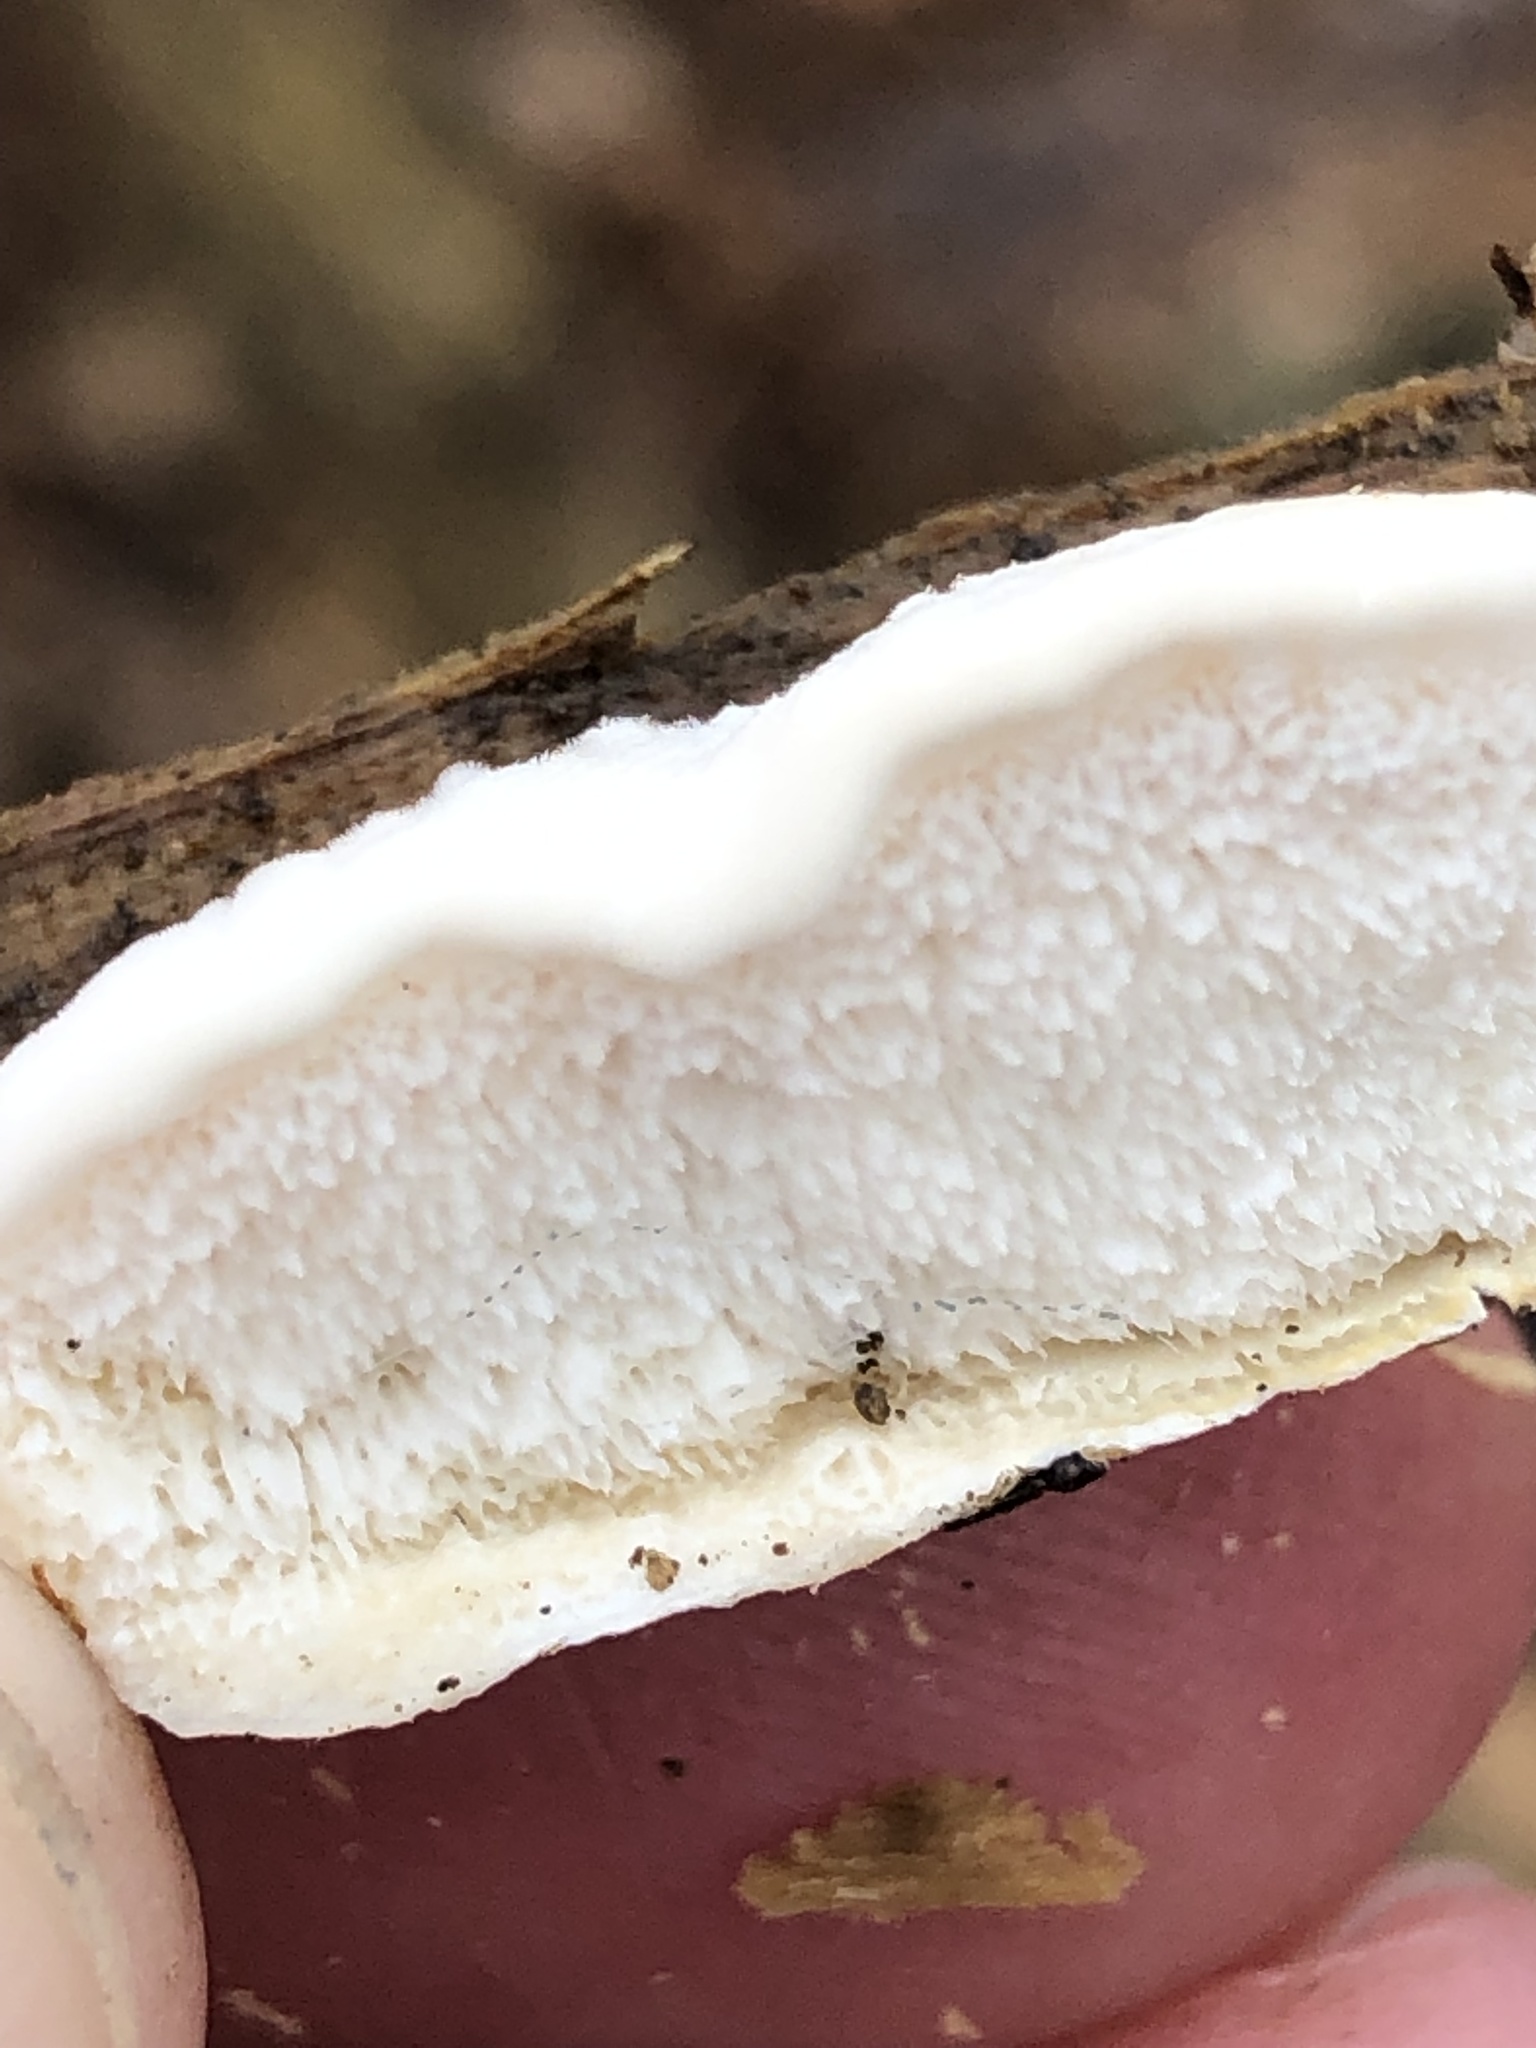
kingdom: Fungi
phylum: Basidiomycota
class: Agaricomycetes
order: Polyporales
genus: Fuscopostia
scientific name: Fuscopostia fragilis
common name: Brown-staining cheese polypore
